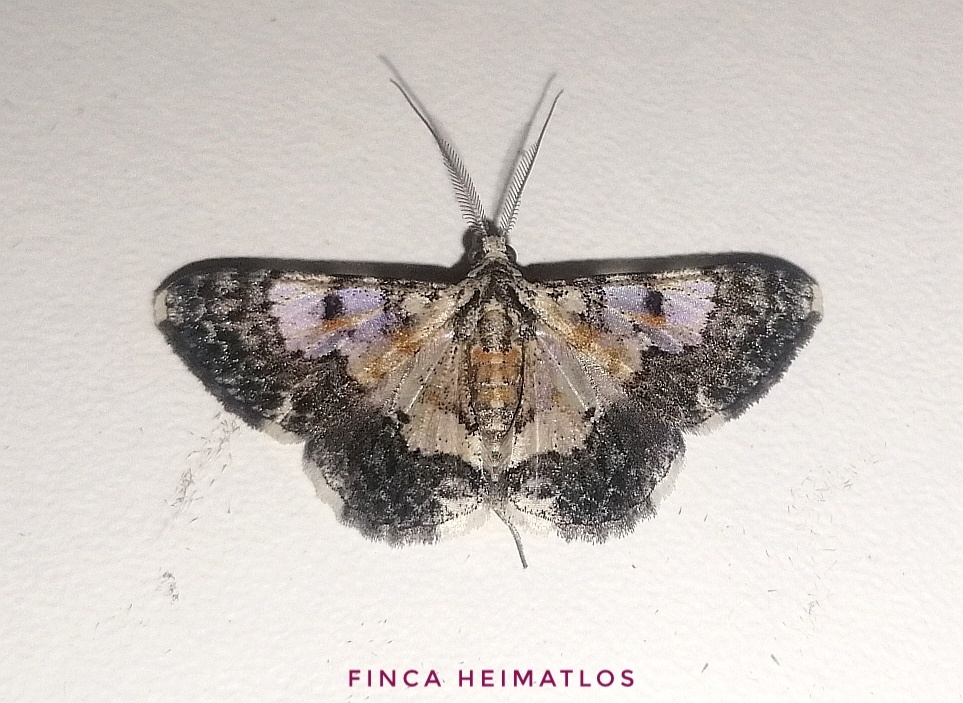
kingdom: Animalia
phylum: Arthropoda
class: Insecta
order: Lepidoptera
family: Geometridae
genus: Hymenomima
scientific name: Hymenomima semialba
